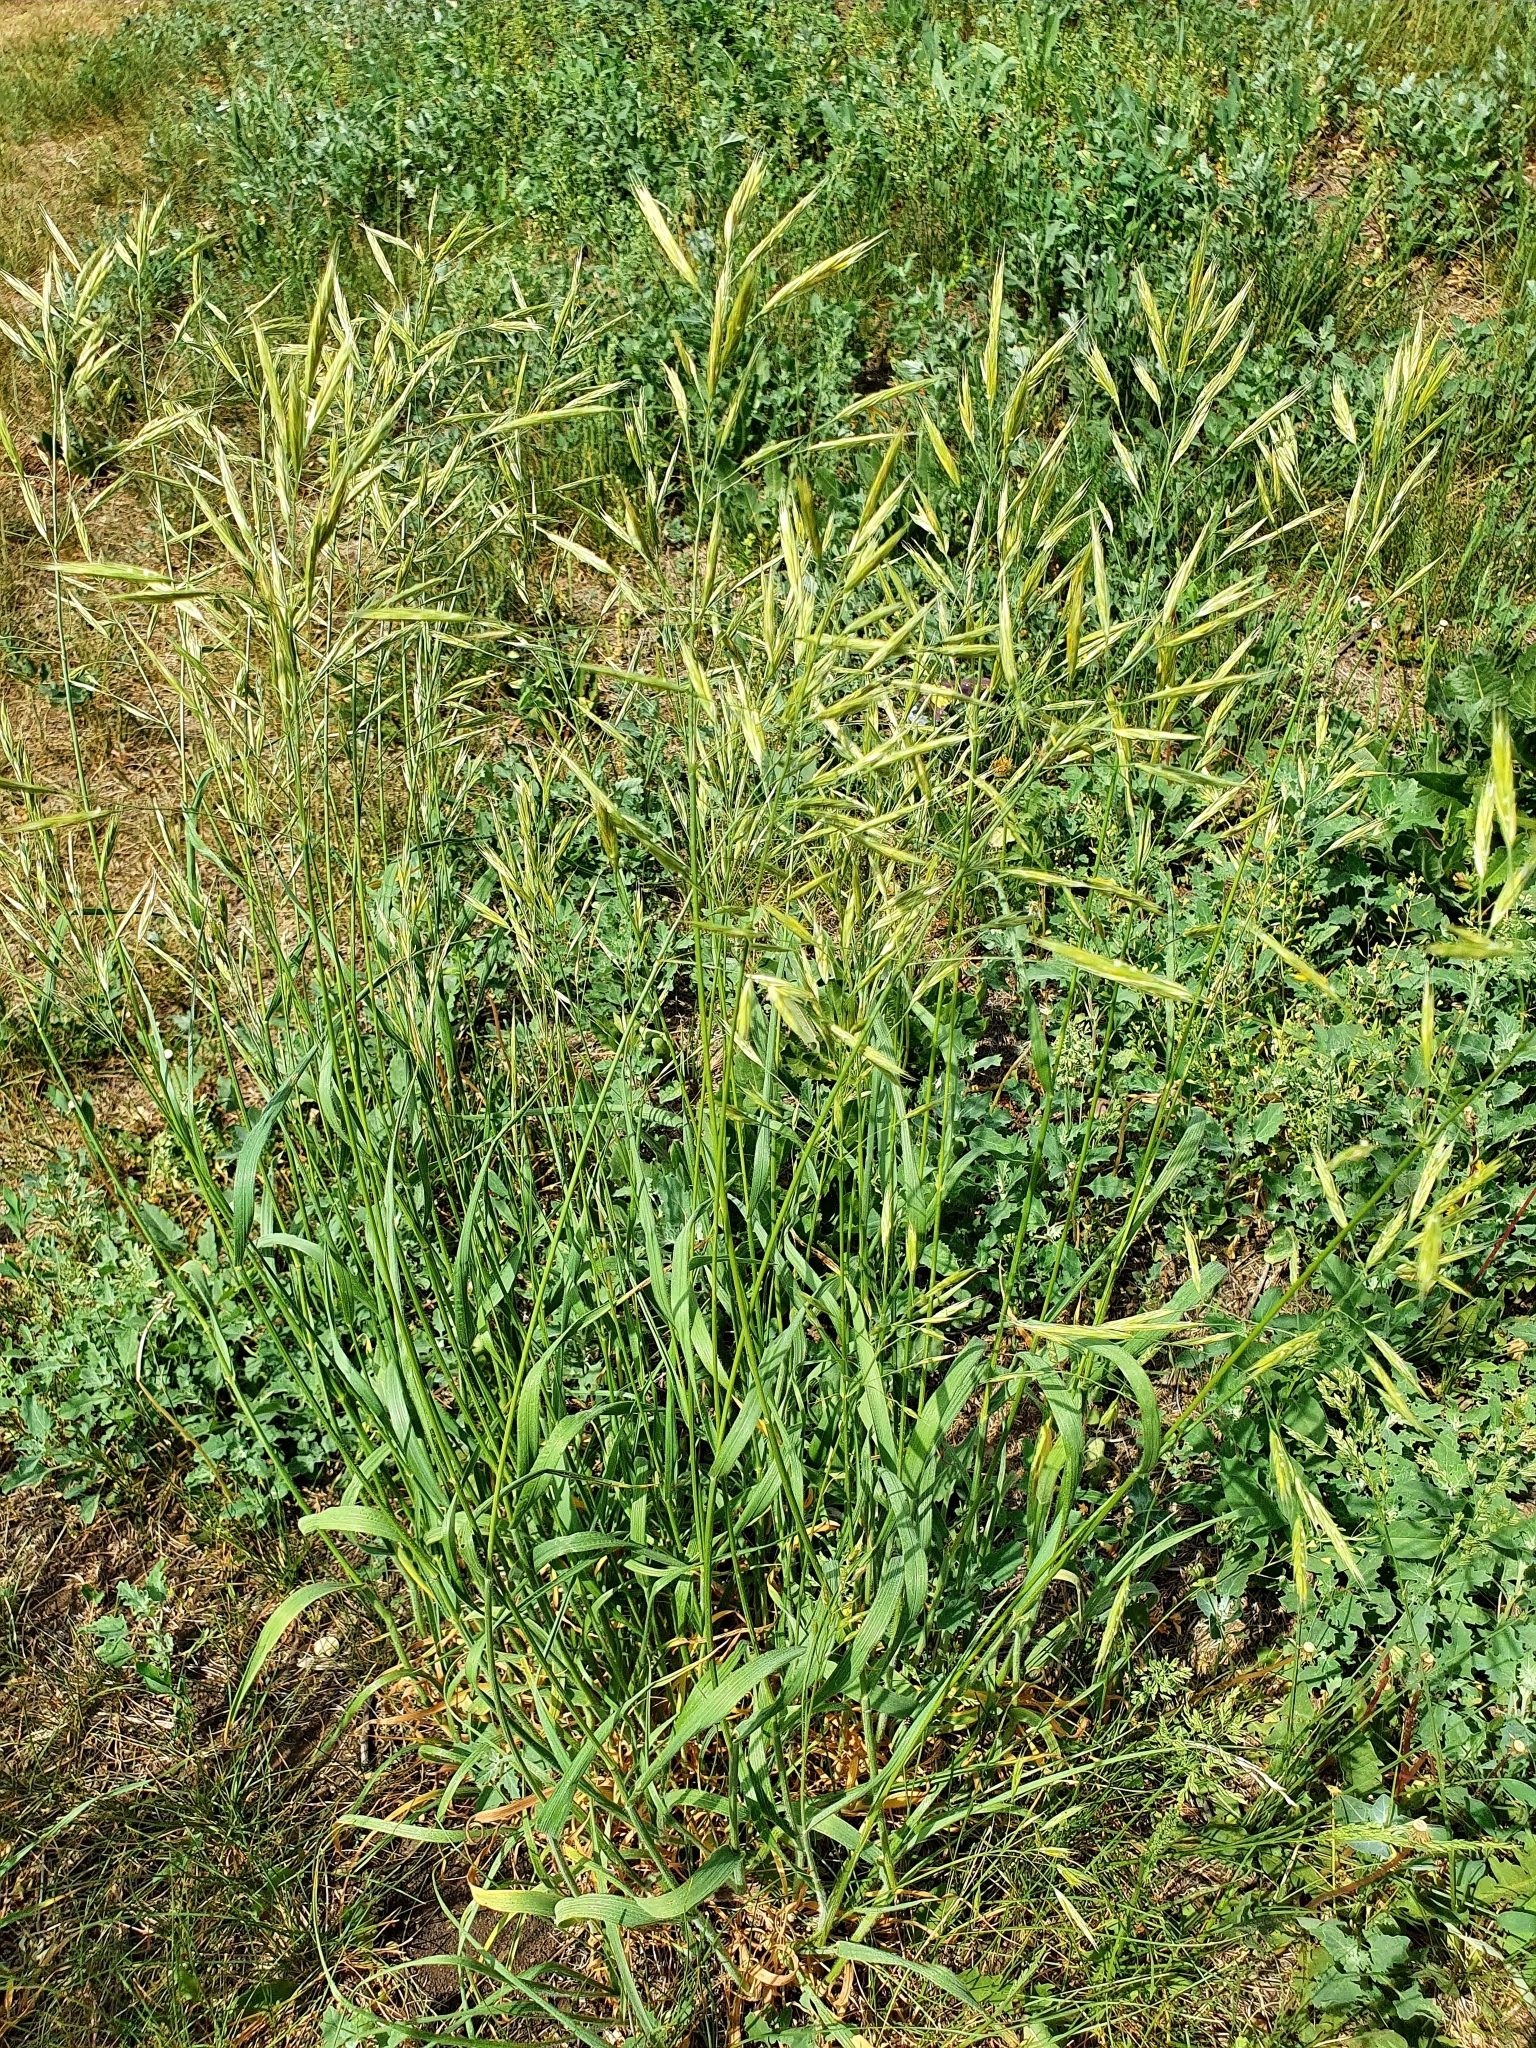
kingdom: Plantae
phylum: Tracheophyta
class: Liliopsida
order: Poales
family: Poaceae
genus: Bromus
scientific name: Bromus inermis
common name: Smooth brome
